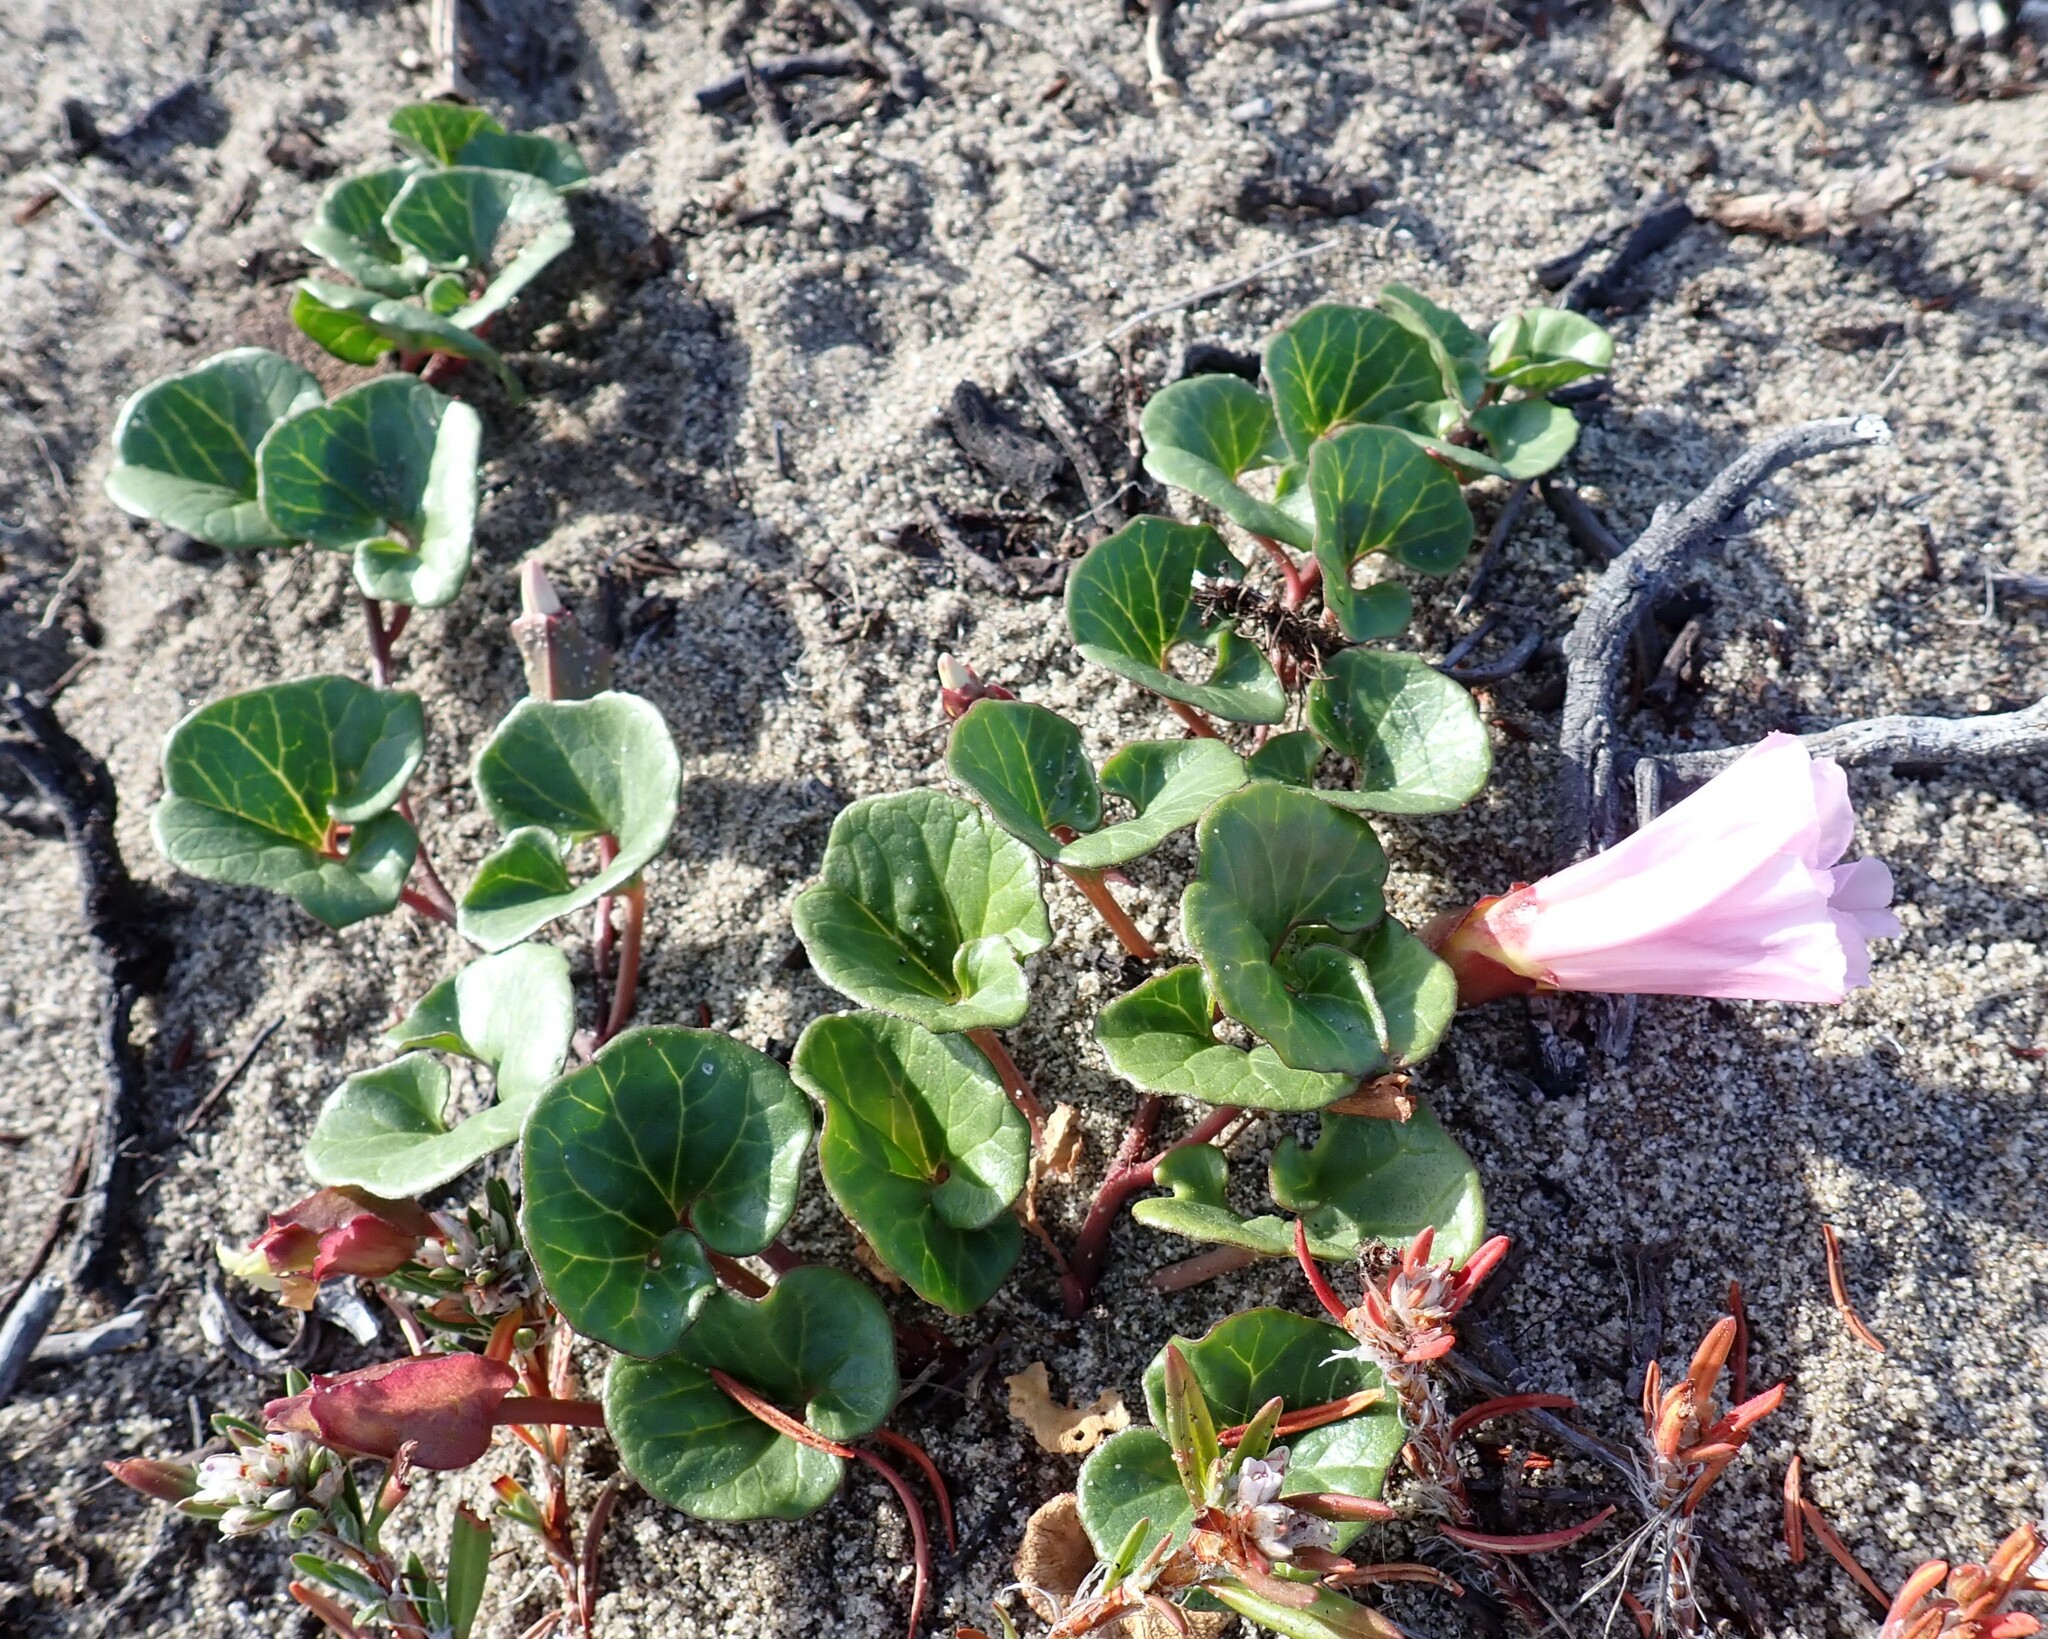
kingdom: Plantae
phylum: Tracheophyta
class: Magnoliopsida
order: Solanales
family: Convolvulaceae
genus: Calystegia
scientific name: Calystegia soldanella
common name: Sea bindweed
